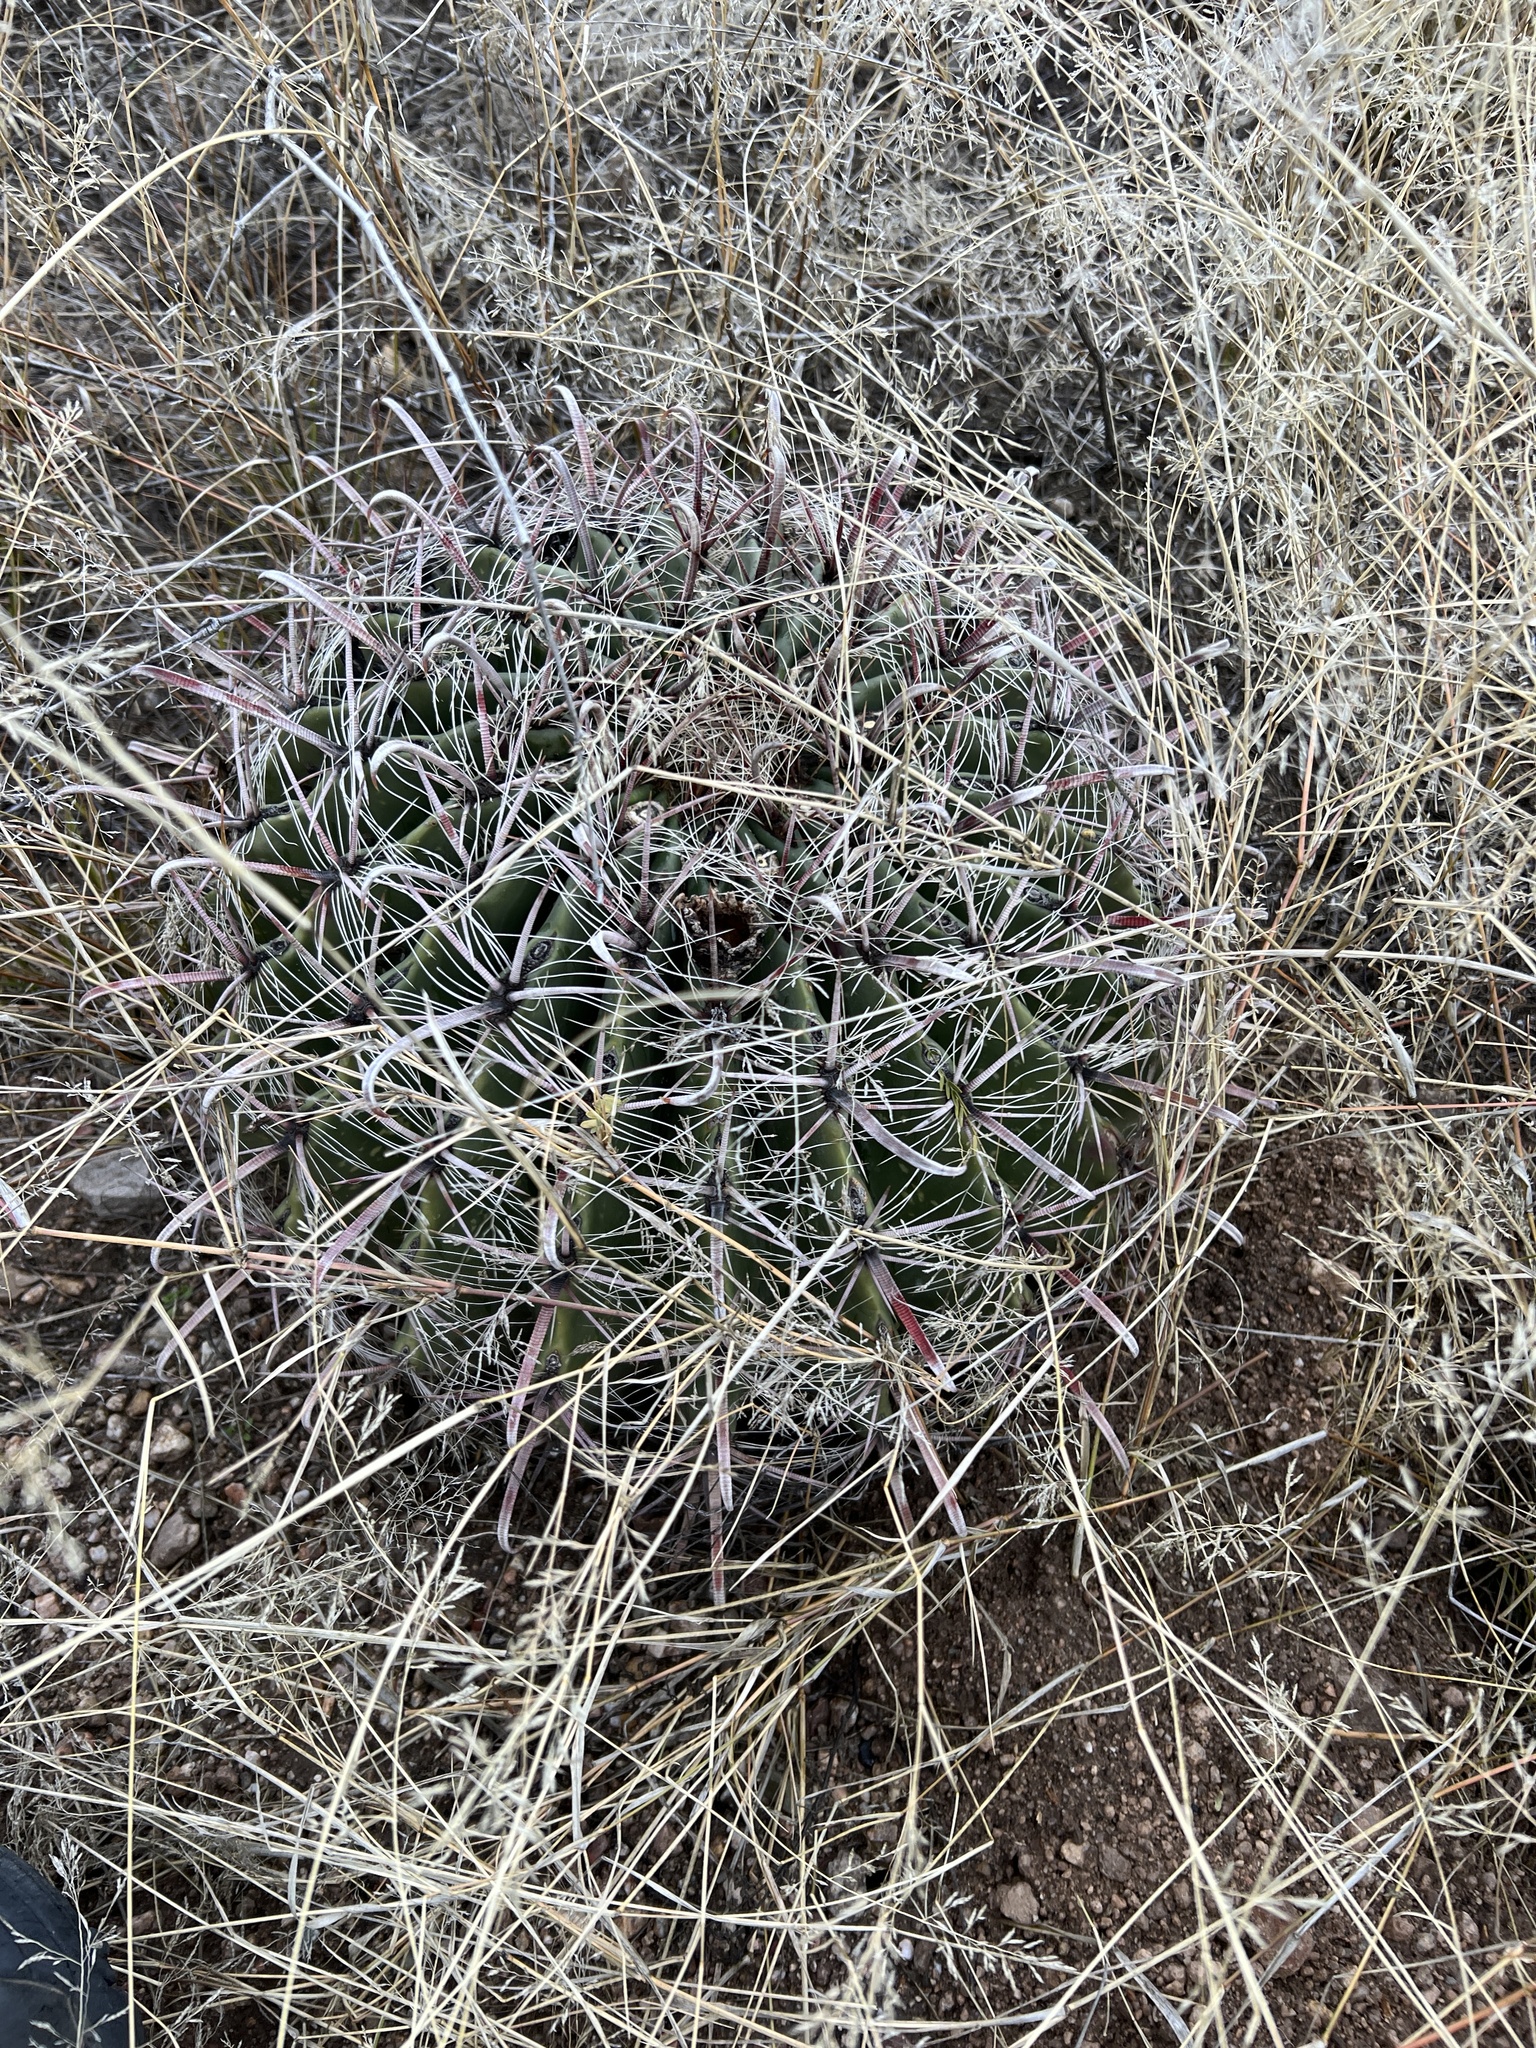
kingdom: Plantae
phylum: Tracheophyta
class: Magnoliopsida
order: Caryophyllales
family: Cactaceae
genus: Ferocactus
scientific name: Ferocactus wislizeni
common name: Candy barrel cactus
